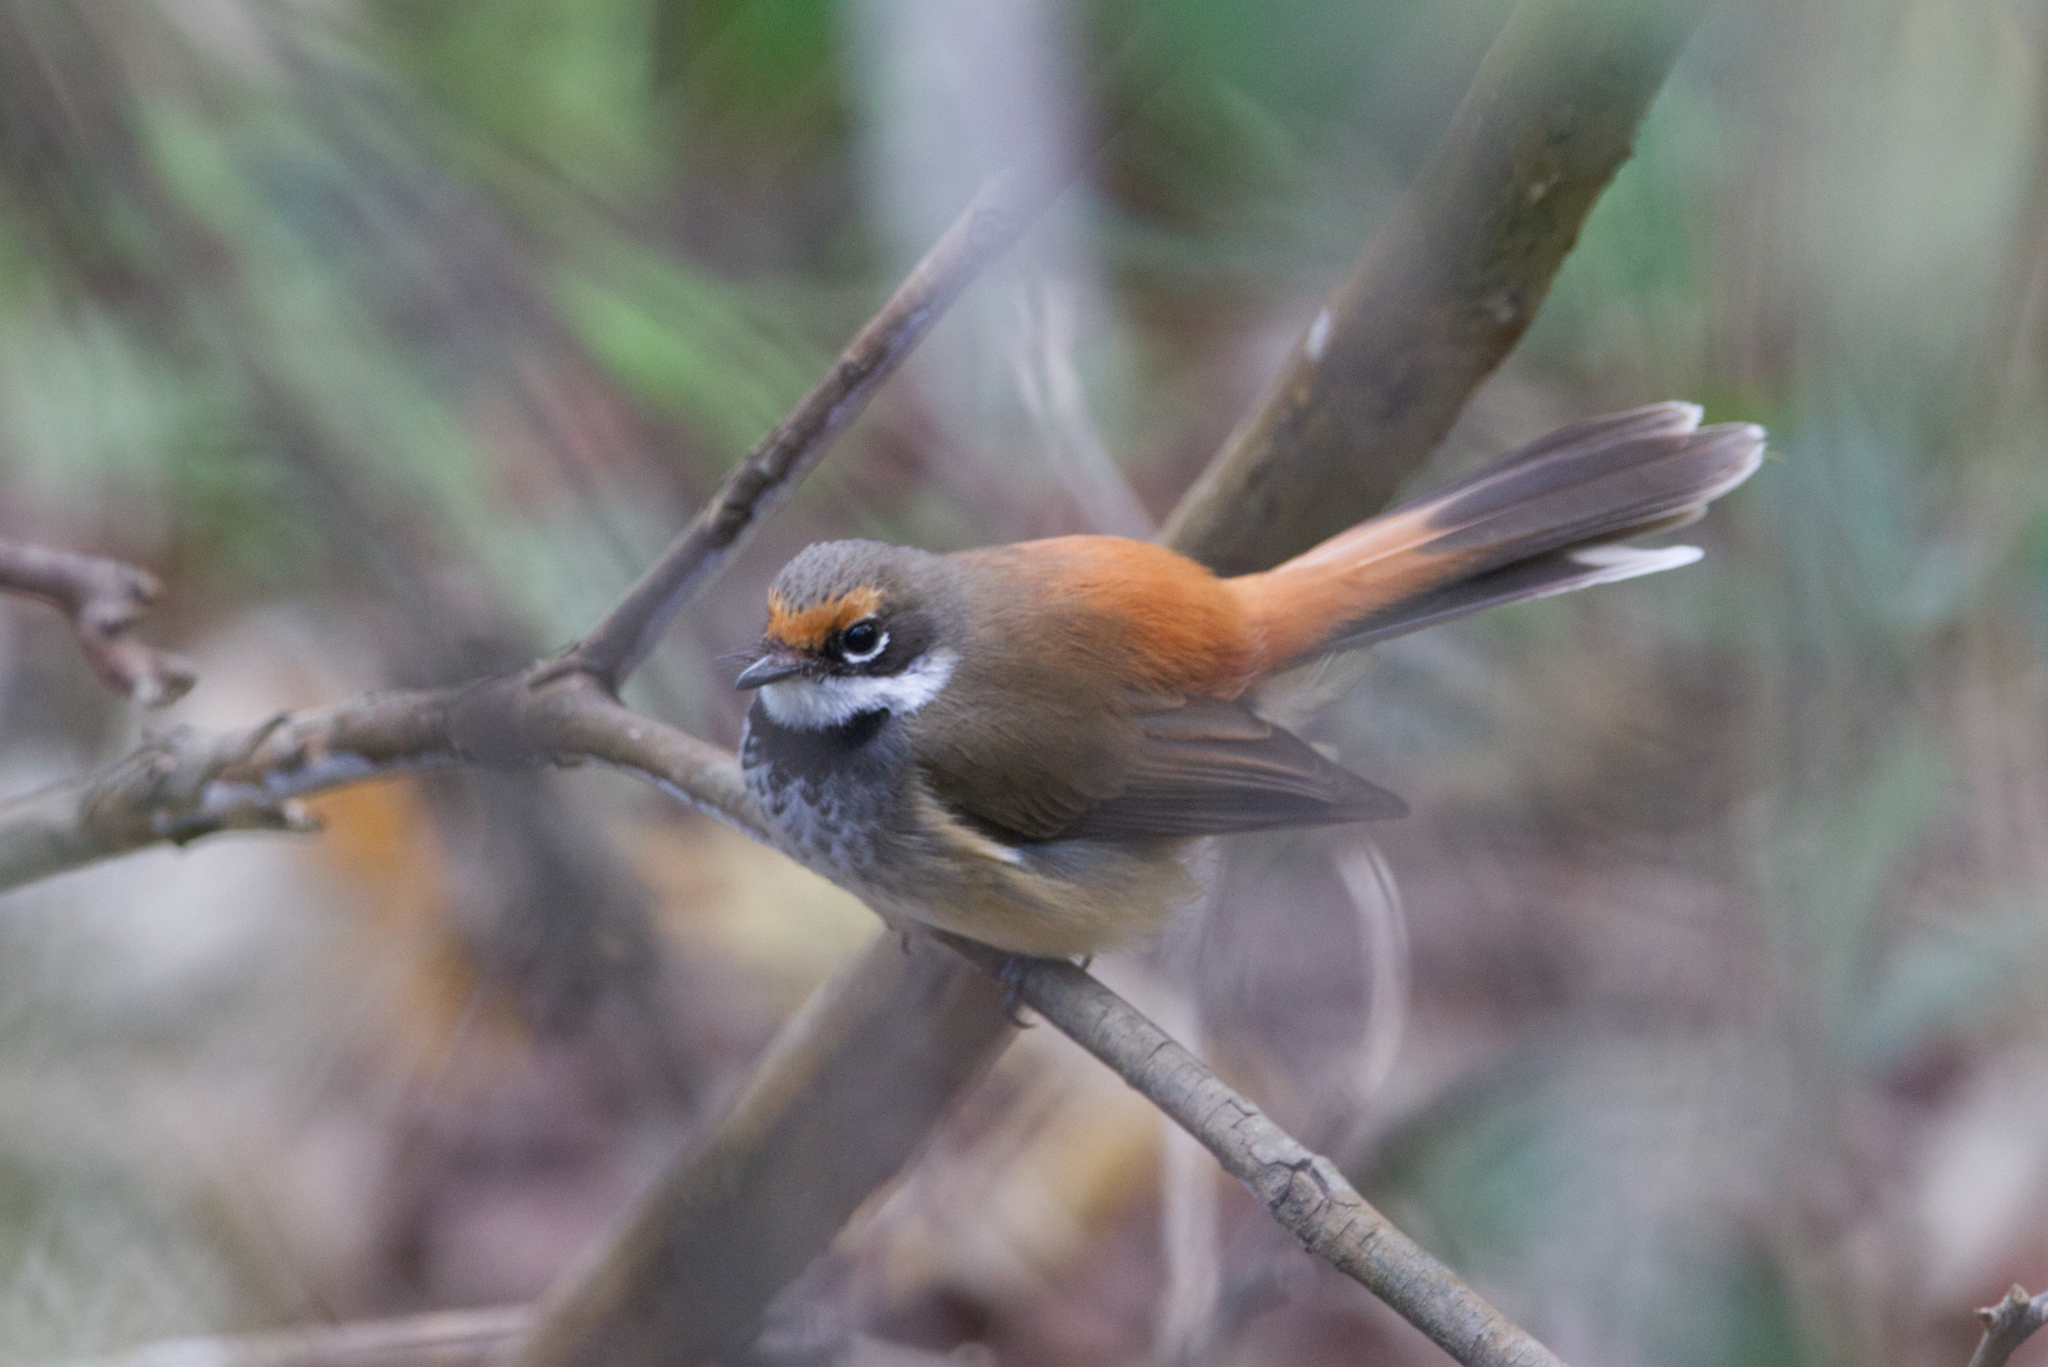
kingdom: Animalia
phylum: Chordata
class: Aves
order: Passeriformes
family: Rhipiduridae
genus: Rhipidura
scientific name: Rhipidura rufifrons
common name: Rufous fantail
